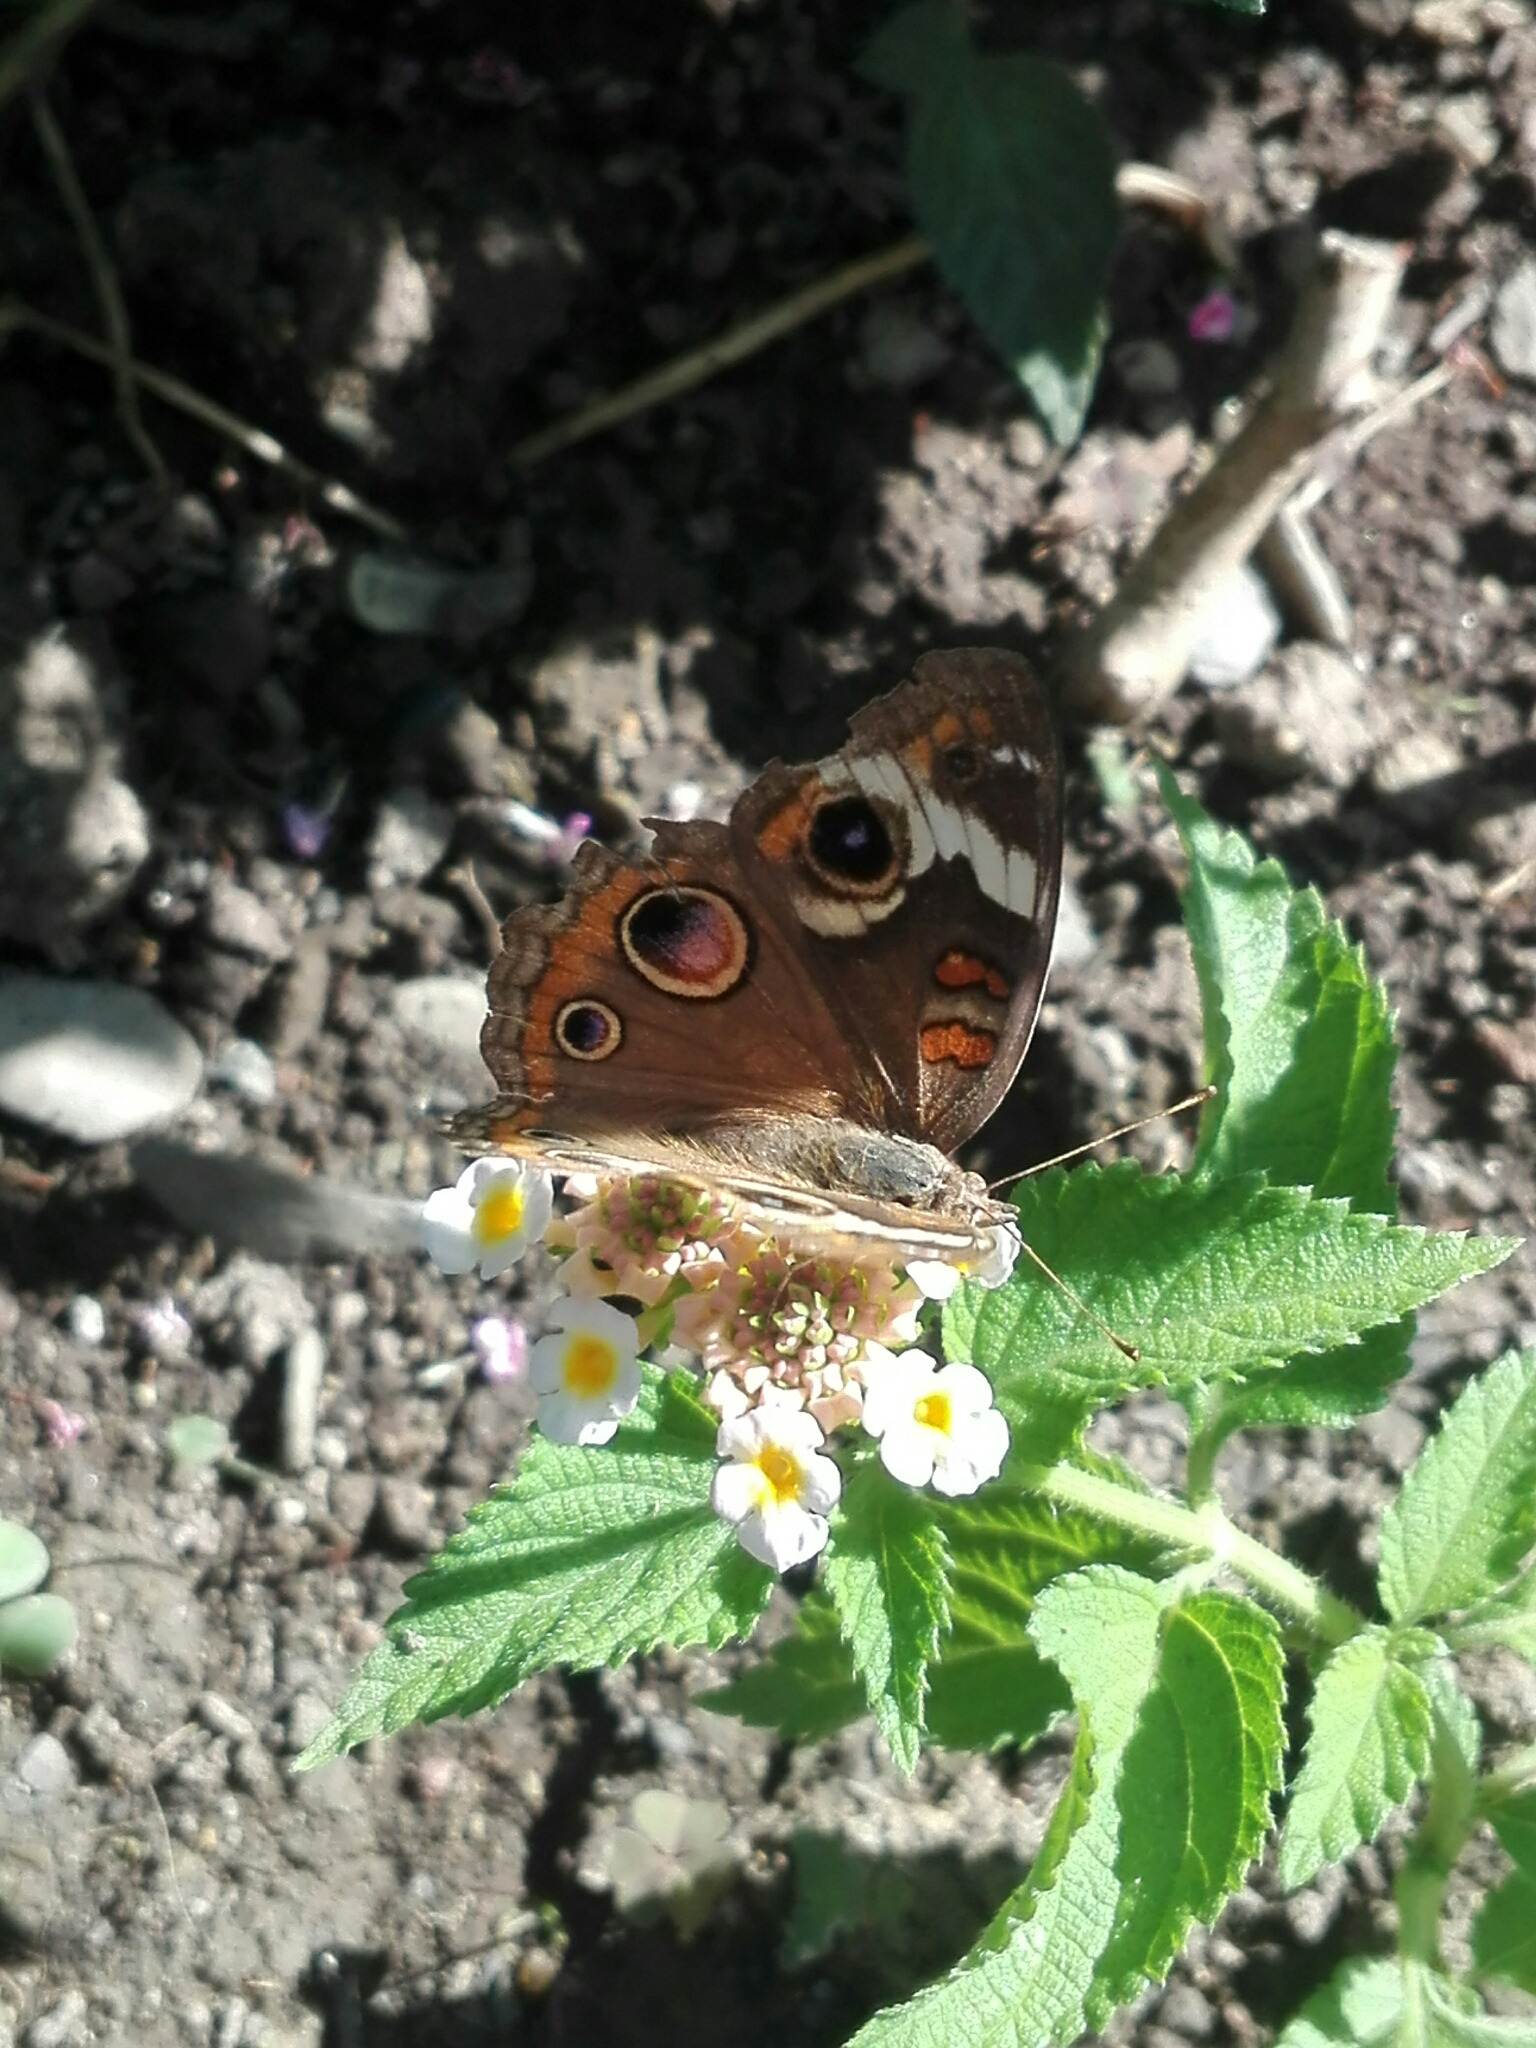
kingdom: Animalia
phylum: Arthropoda
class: Insecta
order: Lepidoptera
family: Nymphalidae
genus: Junonia
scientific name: Junonia coenia
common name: Common buckeye
